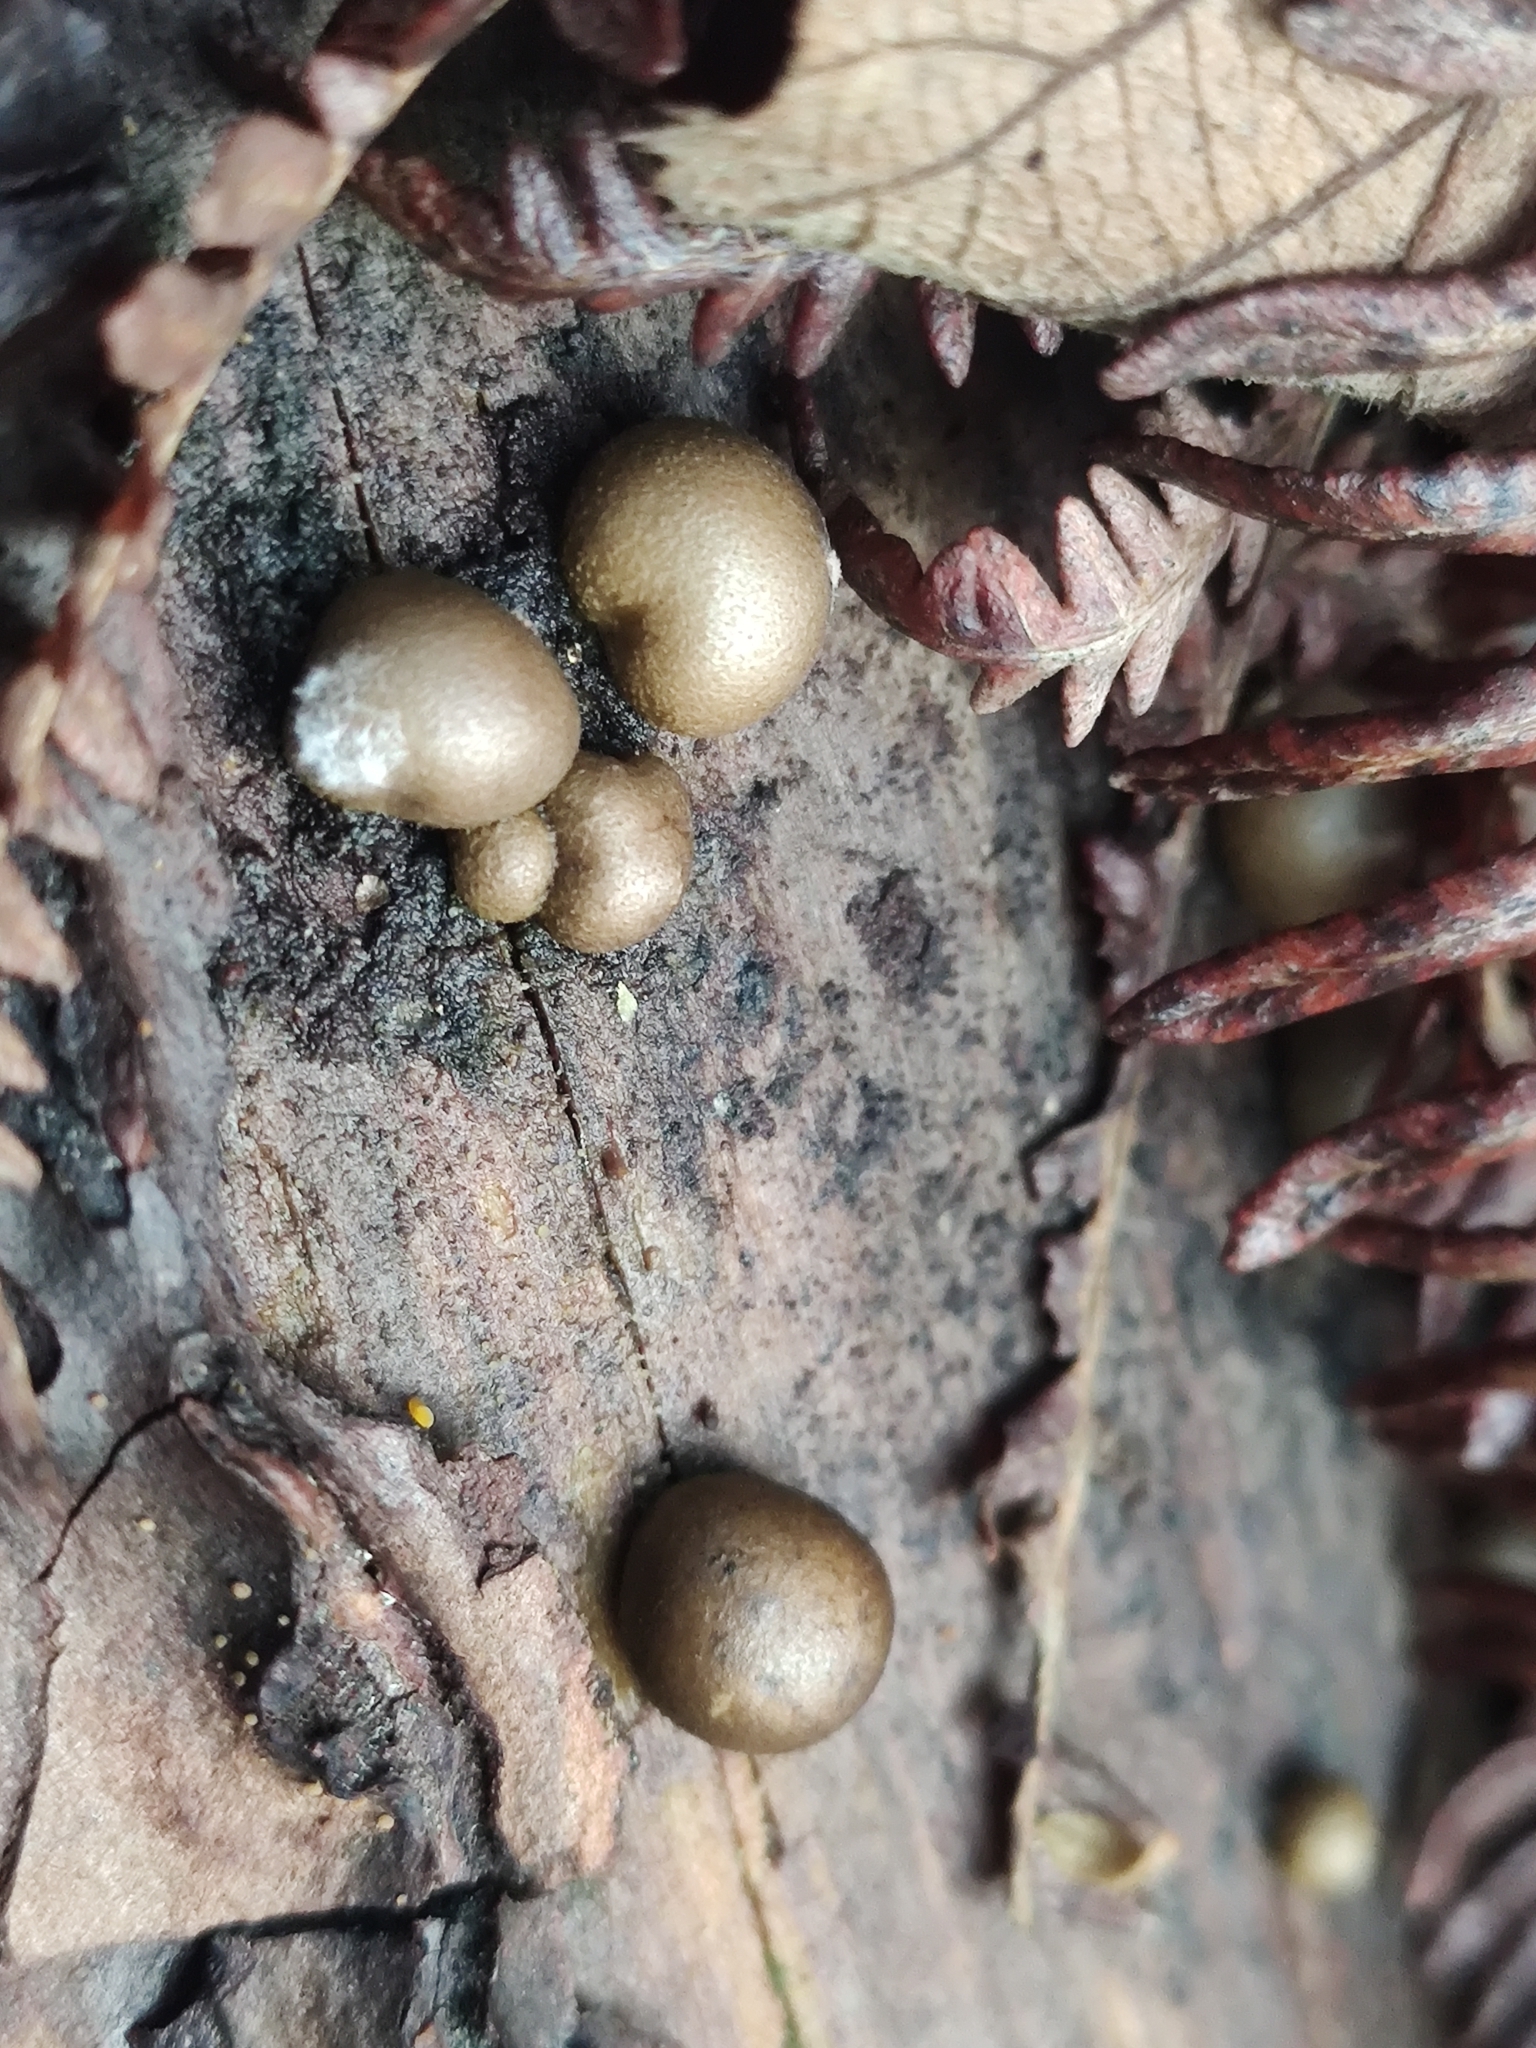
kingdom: Protozoa
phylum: Mycetozoa
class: Myxomycetes
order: Cribrariales
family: Tubiferaceae
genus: Lycogala
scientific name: Lycogala epidendrum
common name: Wolf's milk
